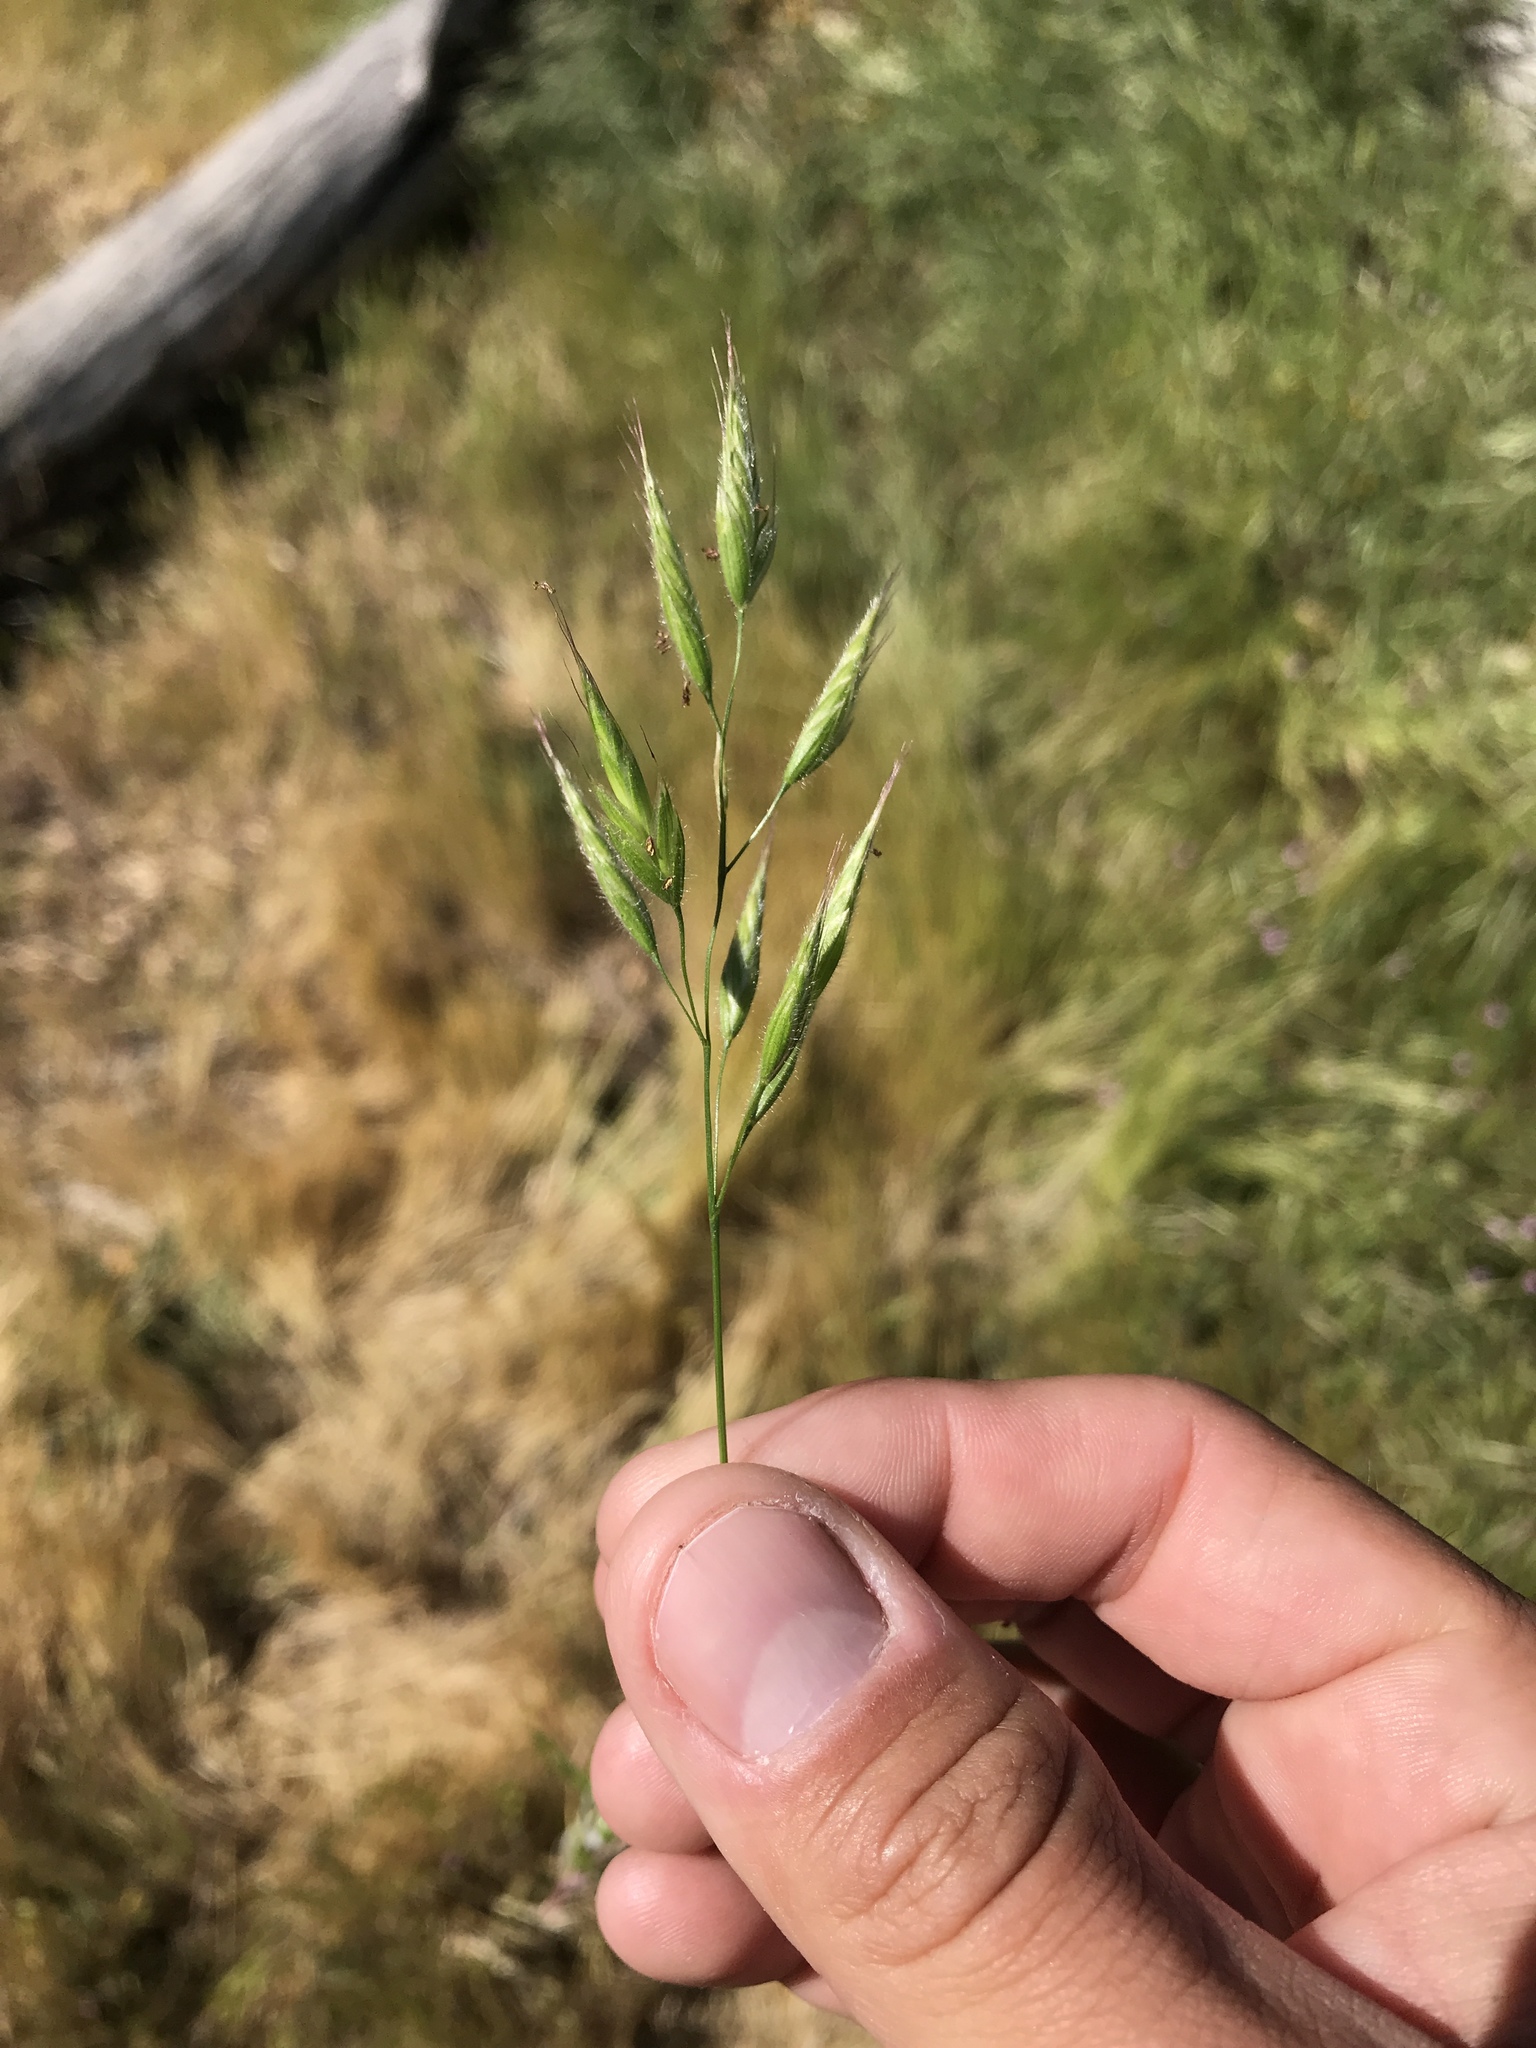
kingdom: Plantae
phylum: Tracheophyta
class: Liliopsida
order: Poales
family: Poaceae
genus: Bromus
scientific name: Bromus hordeaceus
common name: Soft brome
